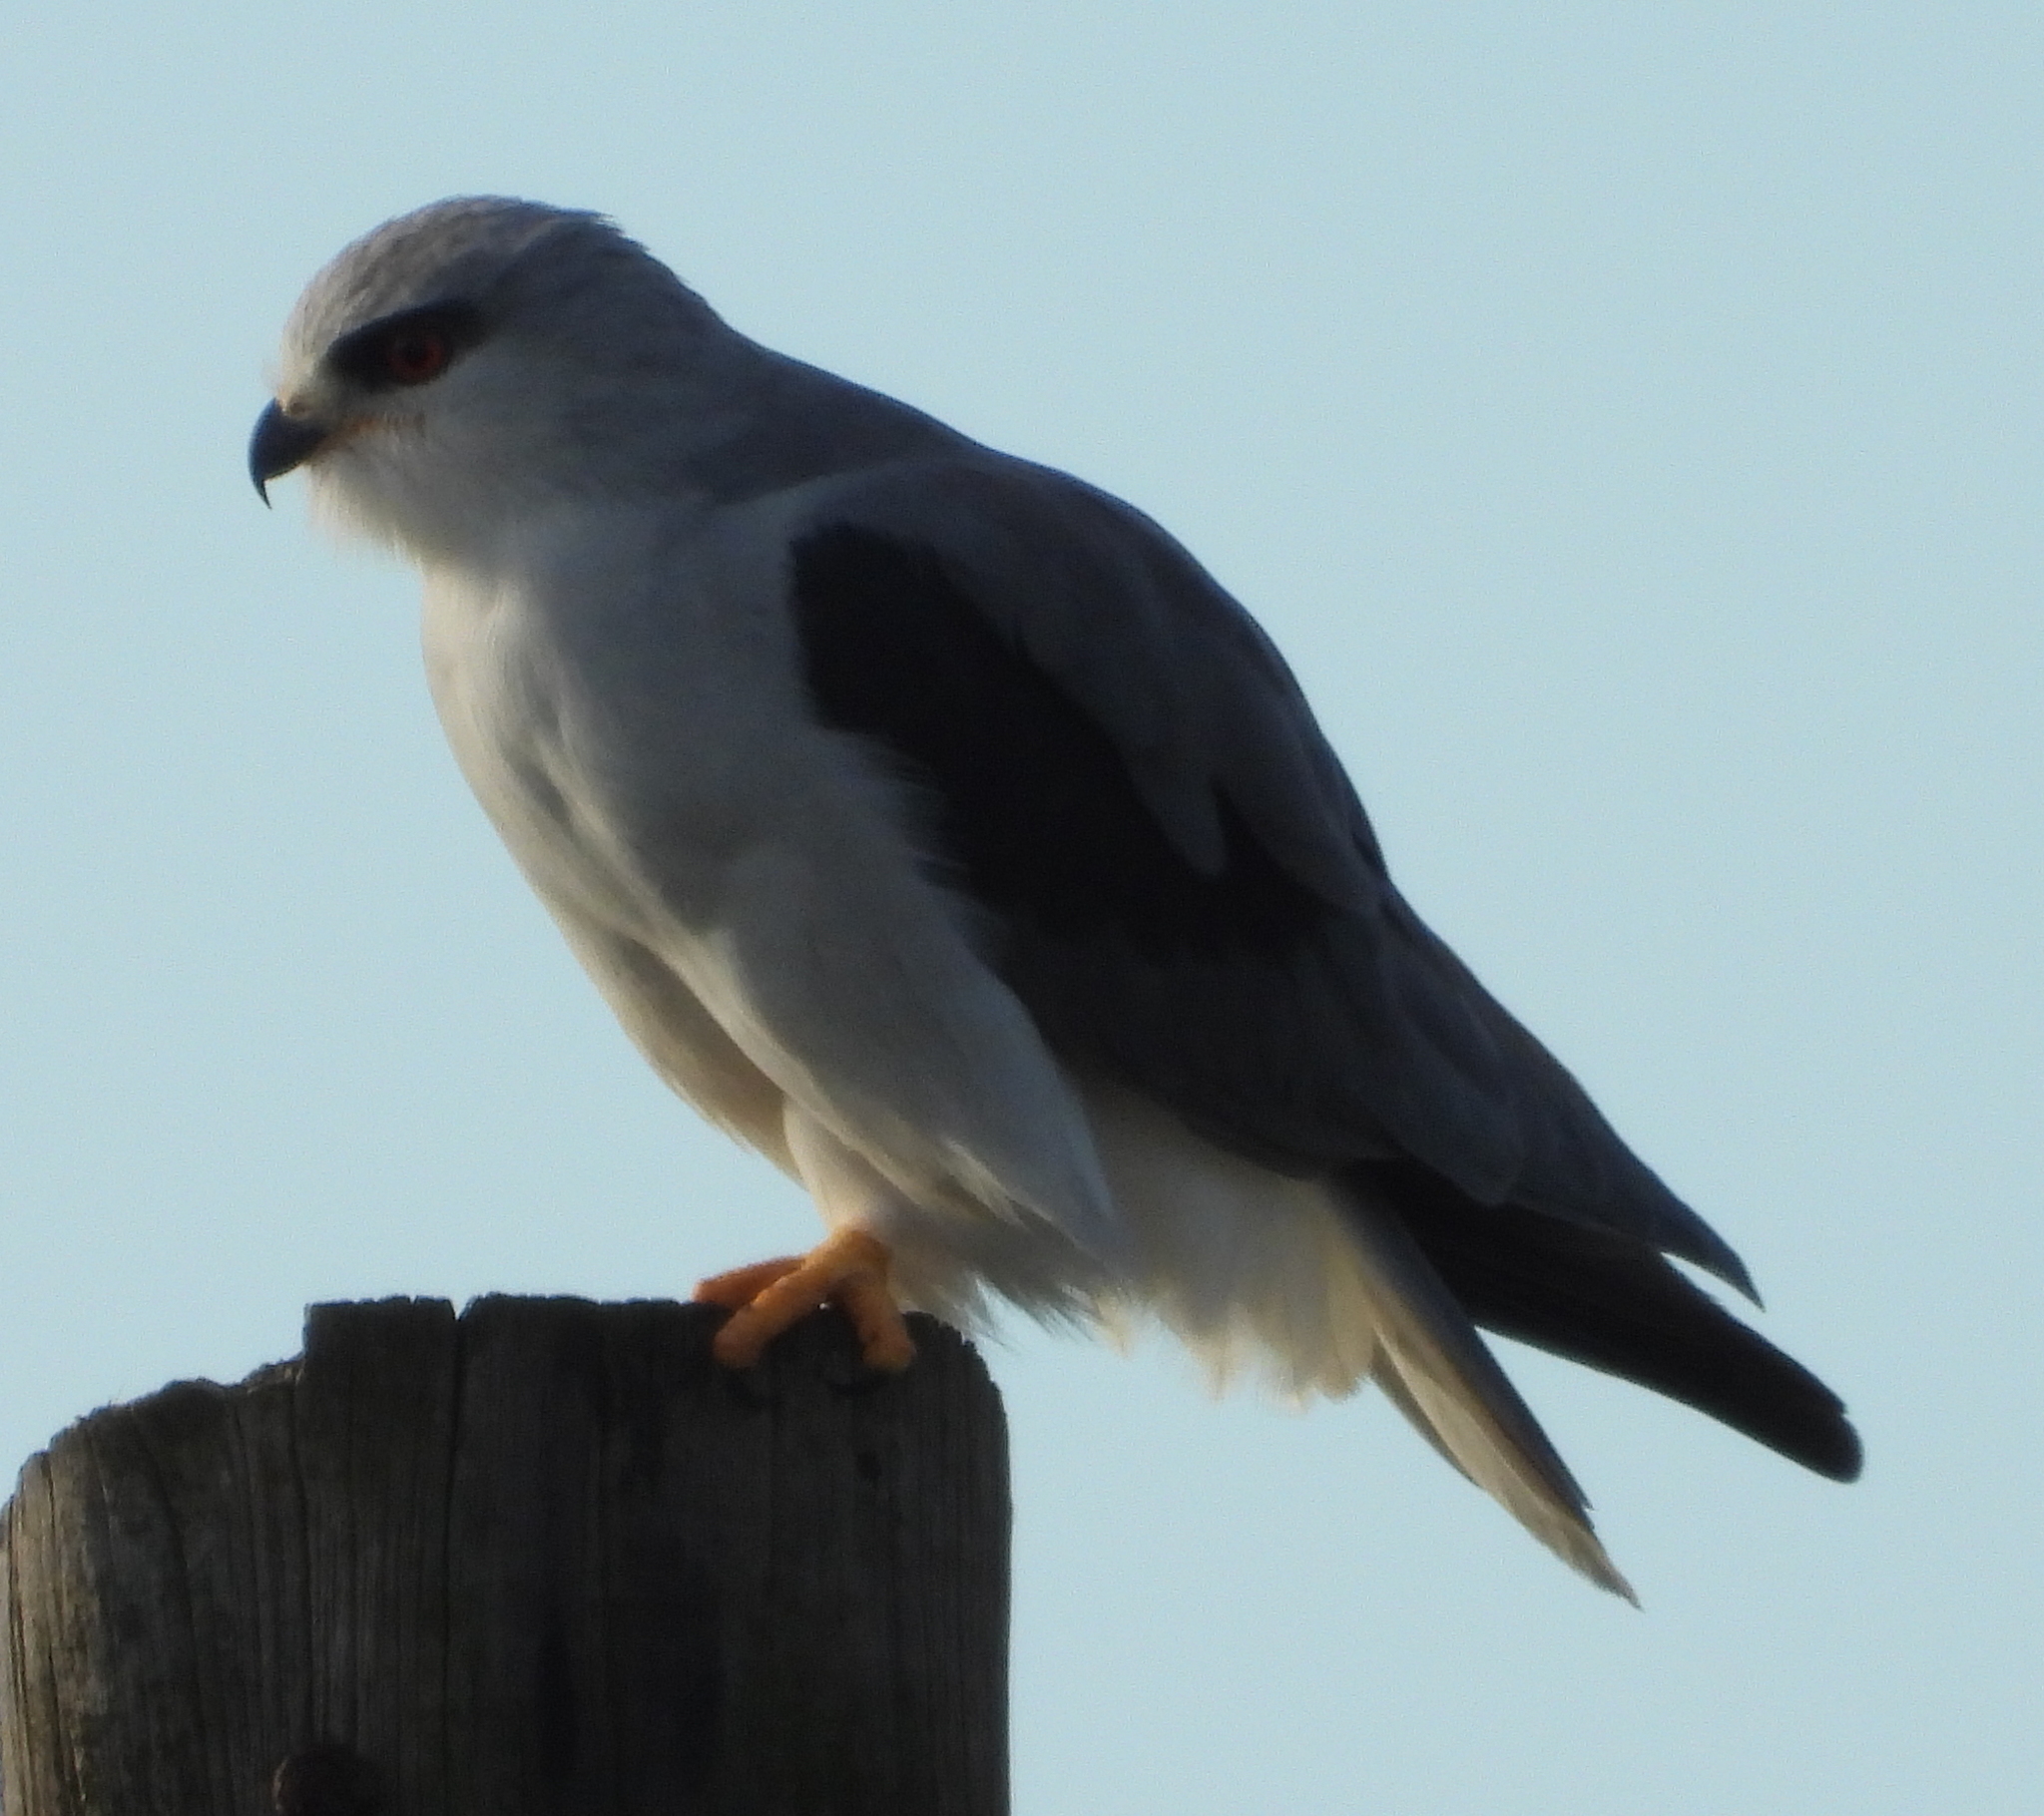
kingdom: Animalia
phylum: Chordata
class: Aves
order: Accipitriformes
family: Accipitridae
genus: Elanus
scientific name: Elanus caeruleus
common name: Black-winged kite
